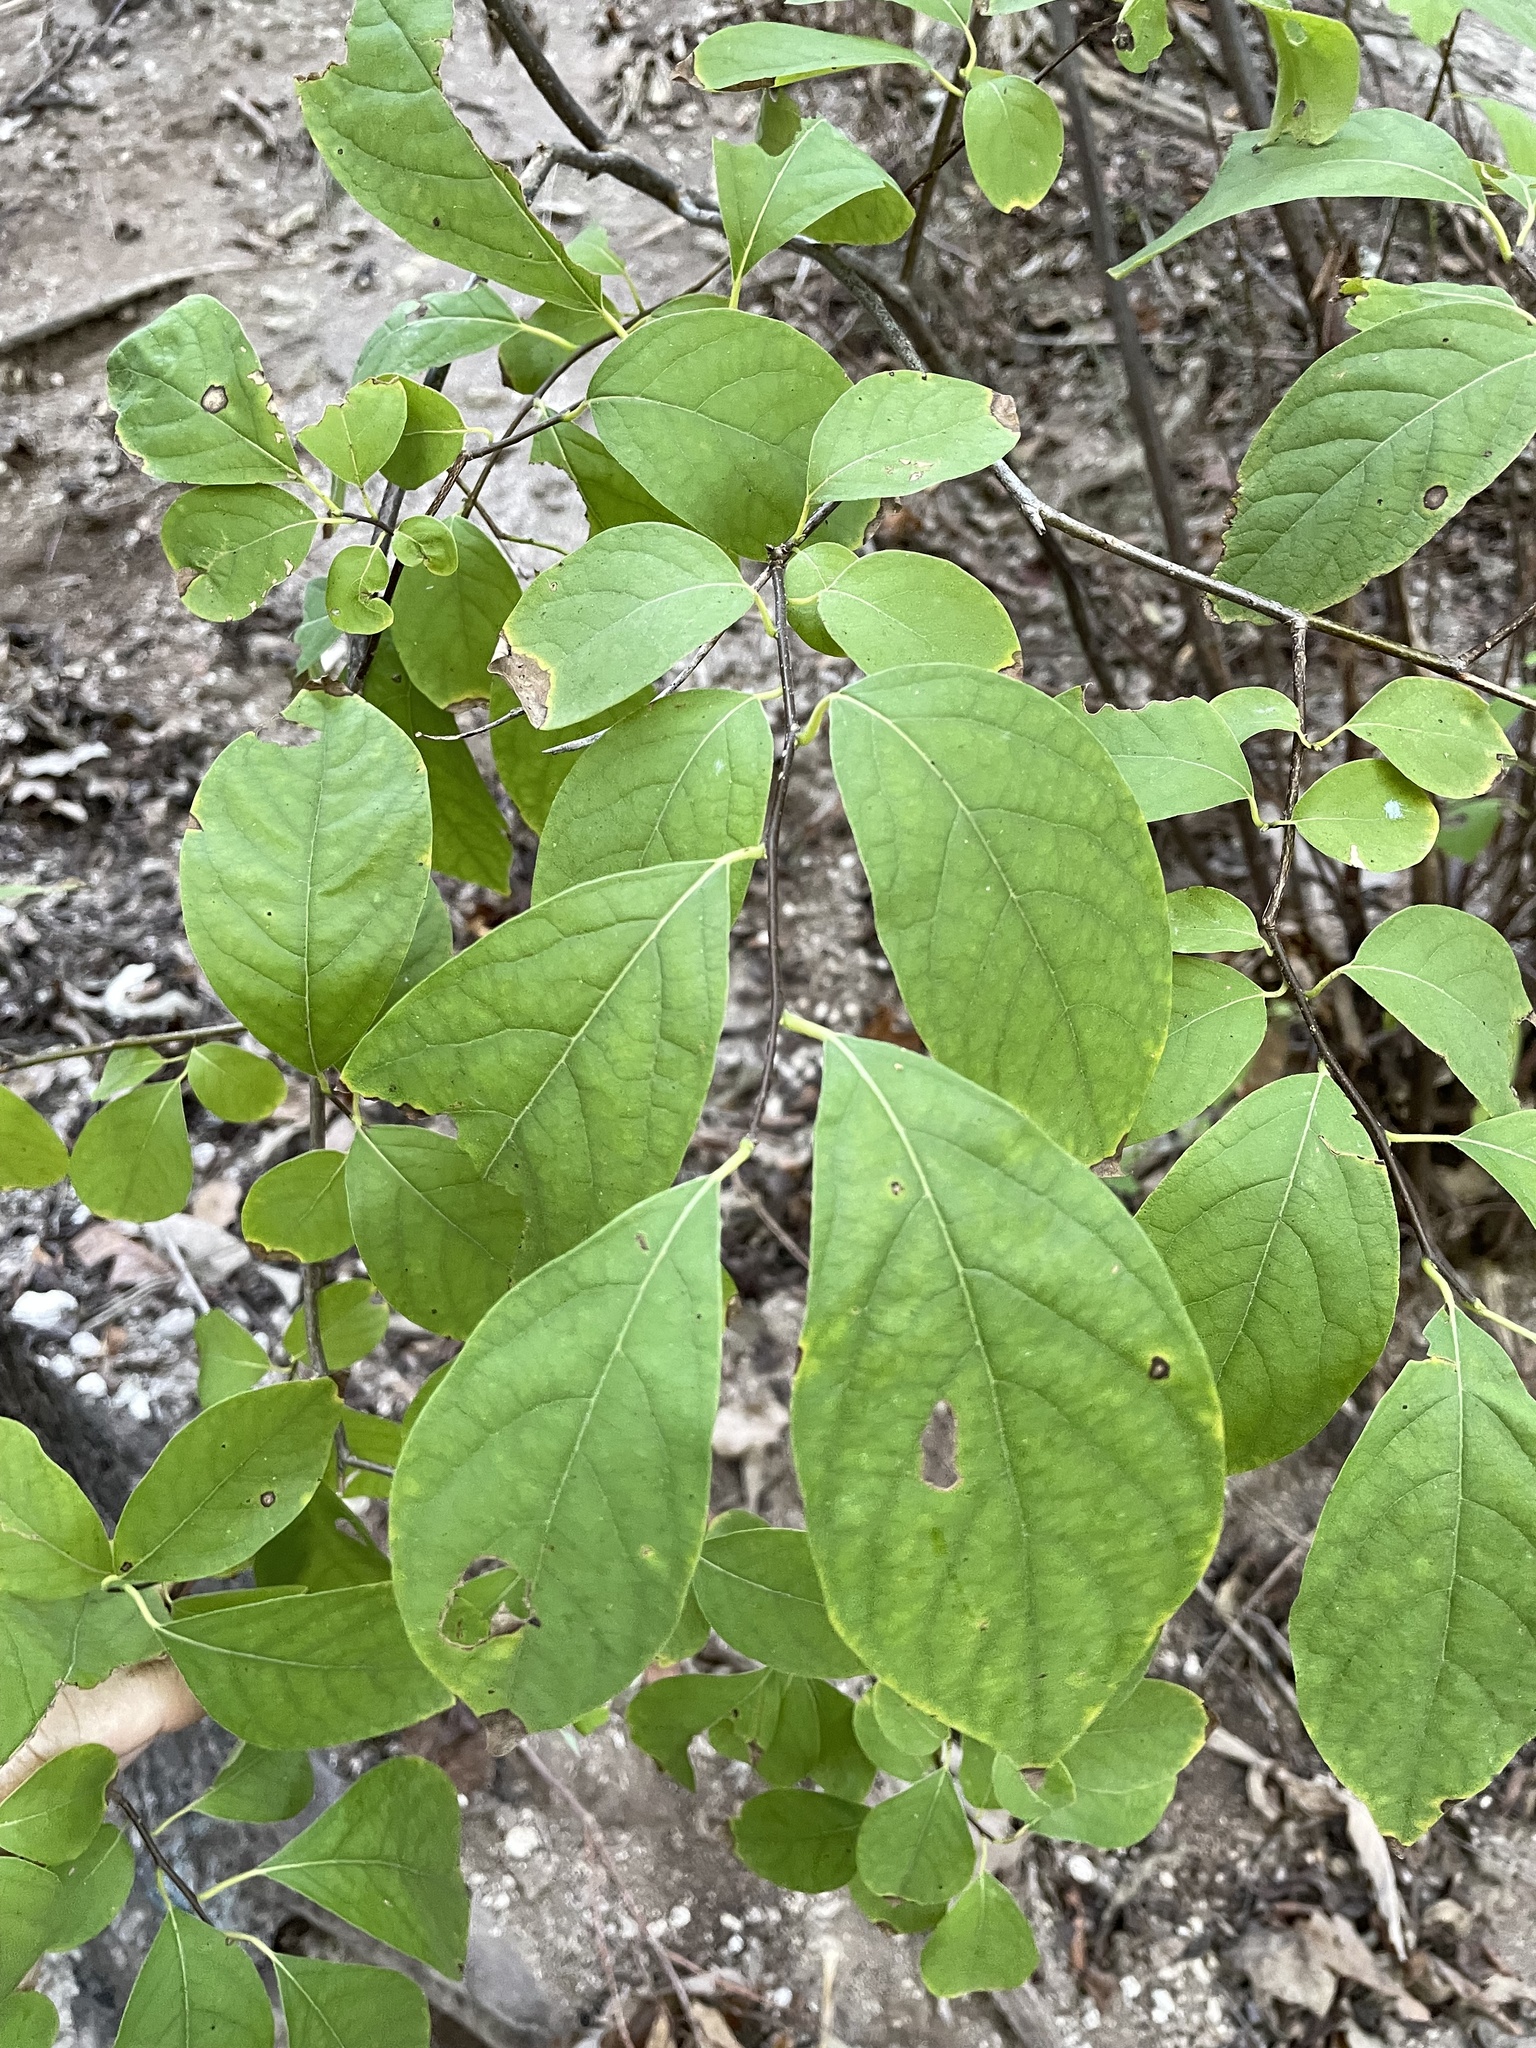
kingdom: Plantae
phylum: Tracheophyta
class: Magnoliopsida
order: Laurales
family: Lauraceae
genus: Lindera
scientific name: Lindera benzoin
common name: Spicebush
